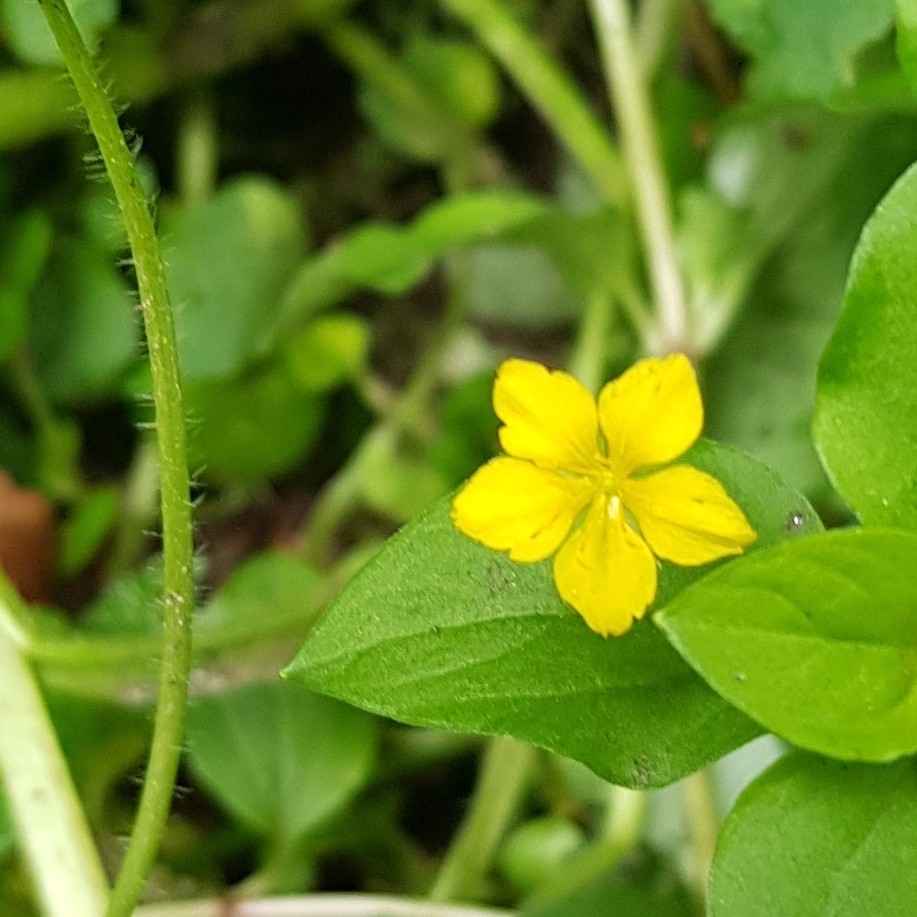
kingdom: Plantae
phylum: Tracheophyta
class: Magnoliopsida
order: Ericales
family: Primulaceae
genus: Lysimachia
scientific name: Lysimachia nemorum
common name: Yellow pimpernel
